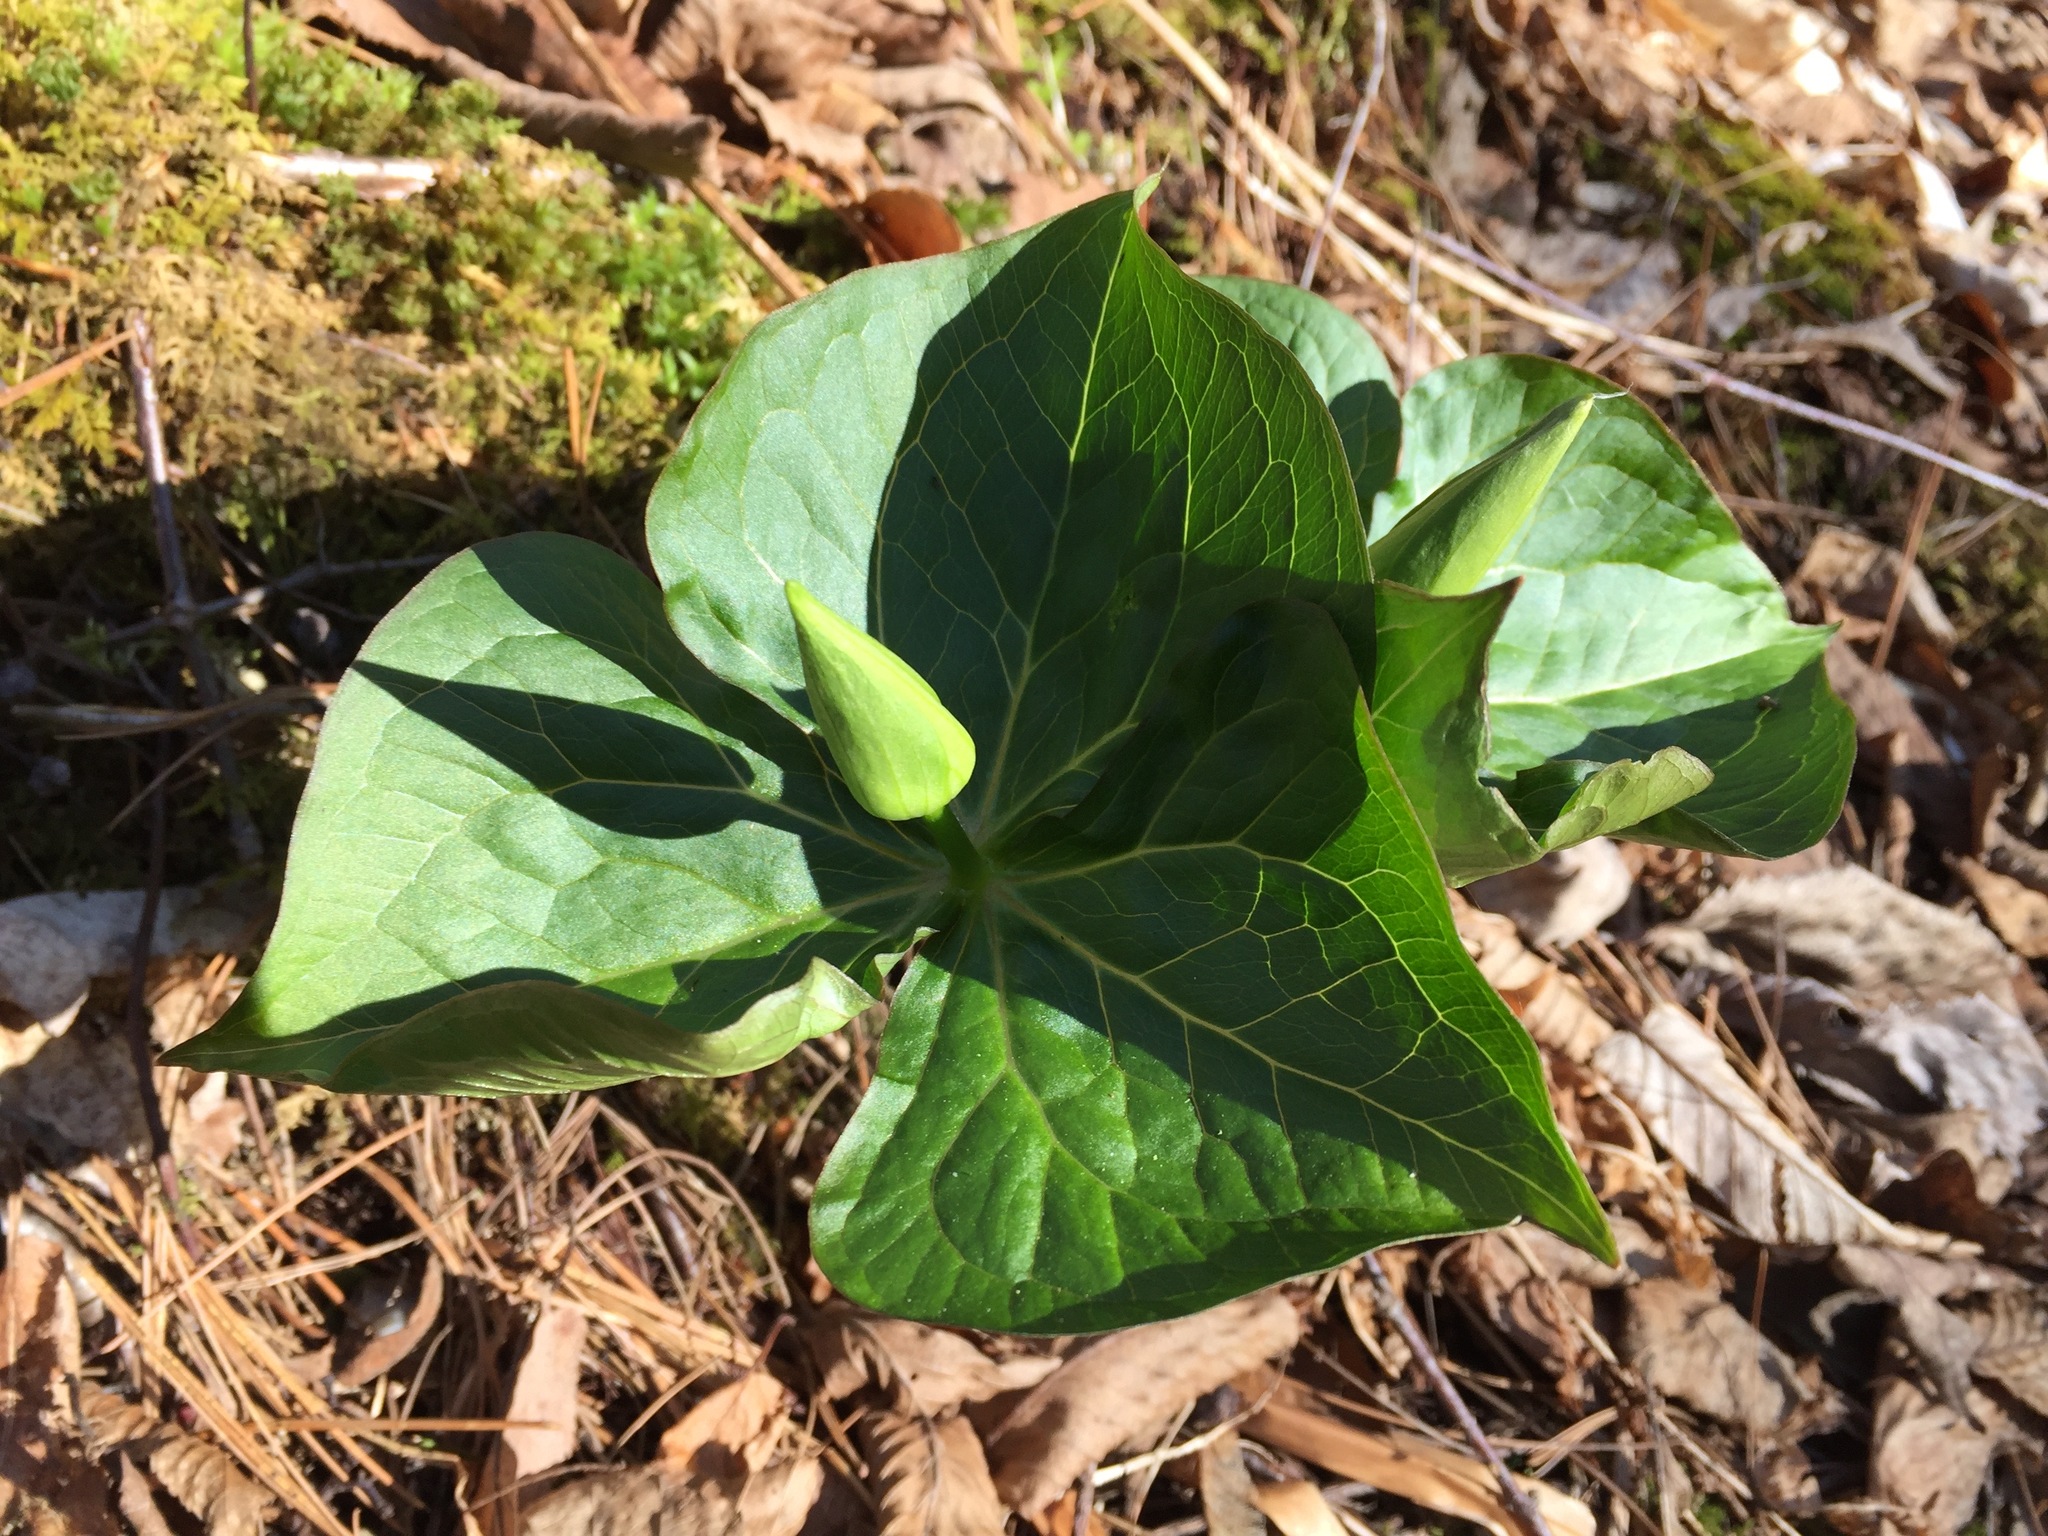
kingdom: Plantae
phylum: Tracheophyta
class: Liliopsida
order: Liliales
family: Melanthiaceae
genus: Trillium
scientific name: Trillium erectum
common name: Purple trillium
